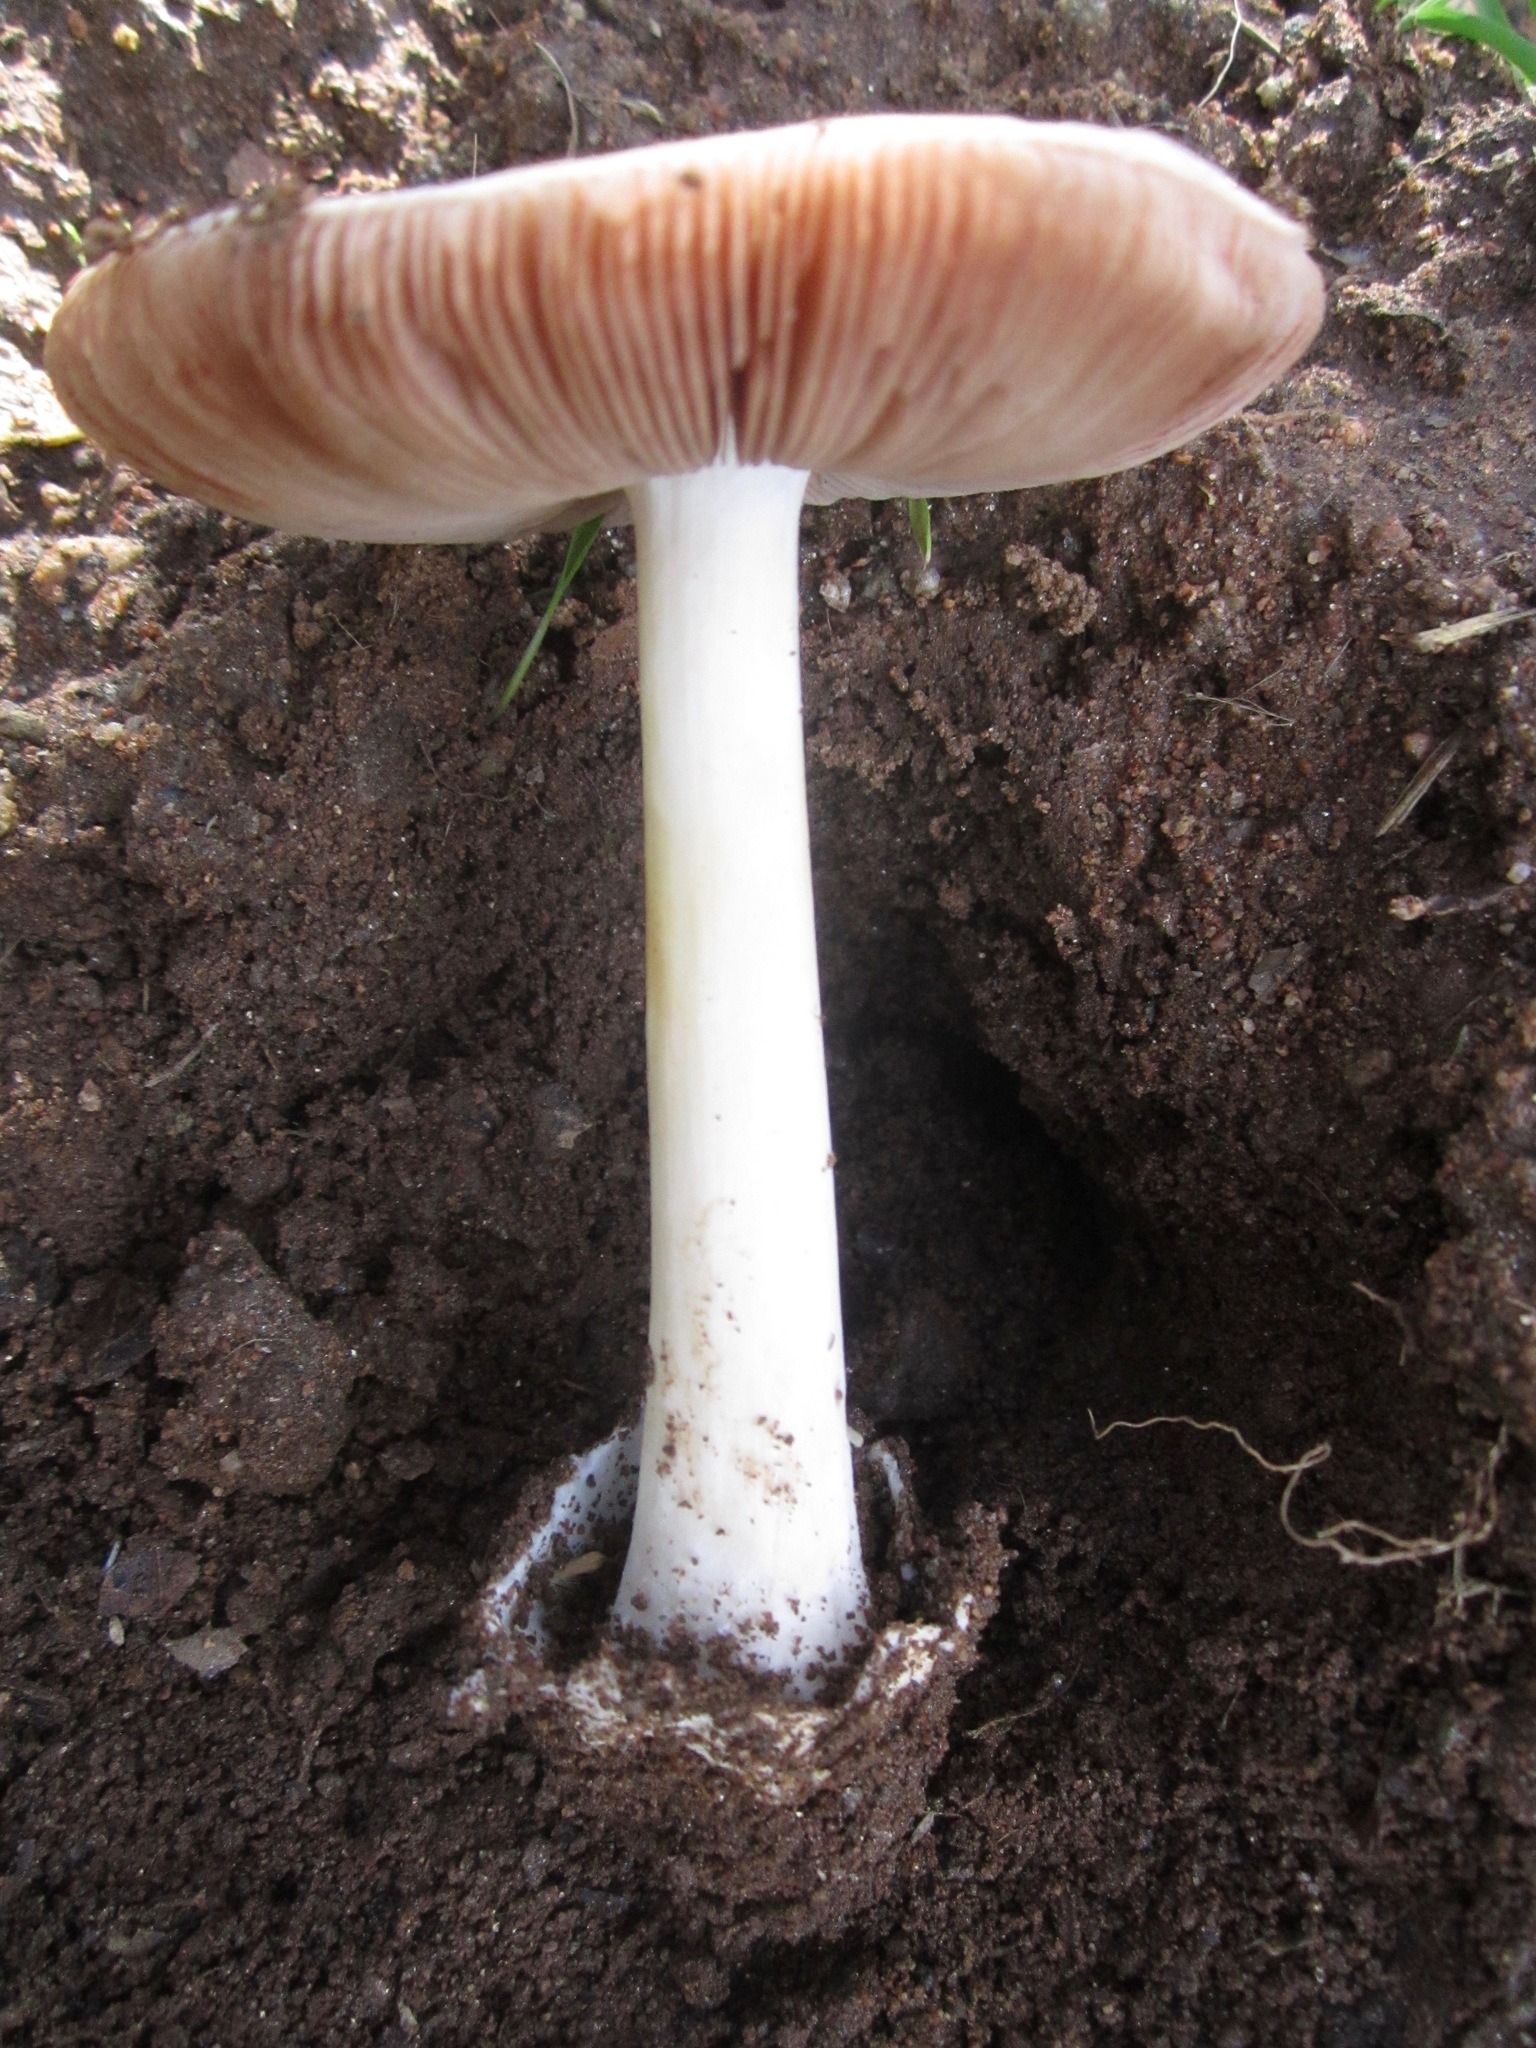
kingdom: Fungi
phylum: Basidiomycota
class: Agaricomycetes
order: Agaricales
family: Pluteaceae
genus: Volvopluteus
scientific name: Volvopluteus gloiocephalus
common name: Stubble rosegill
